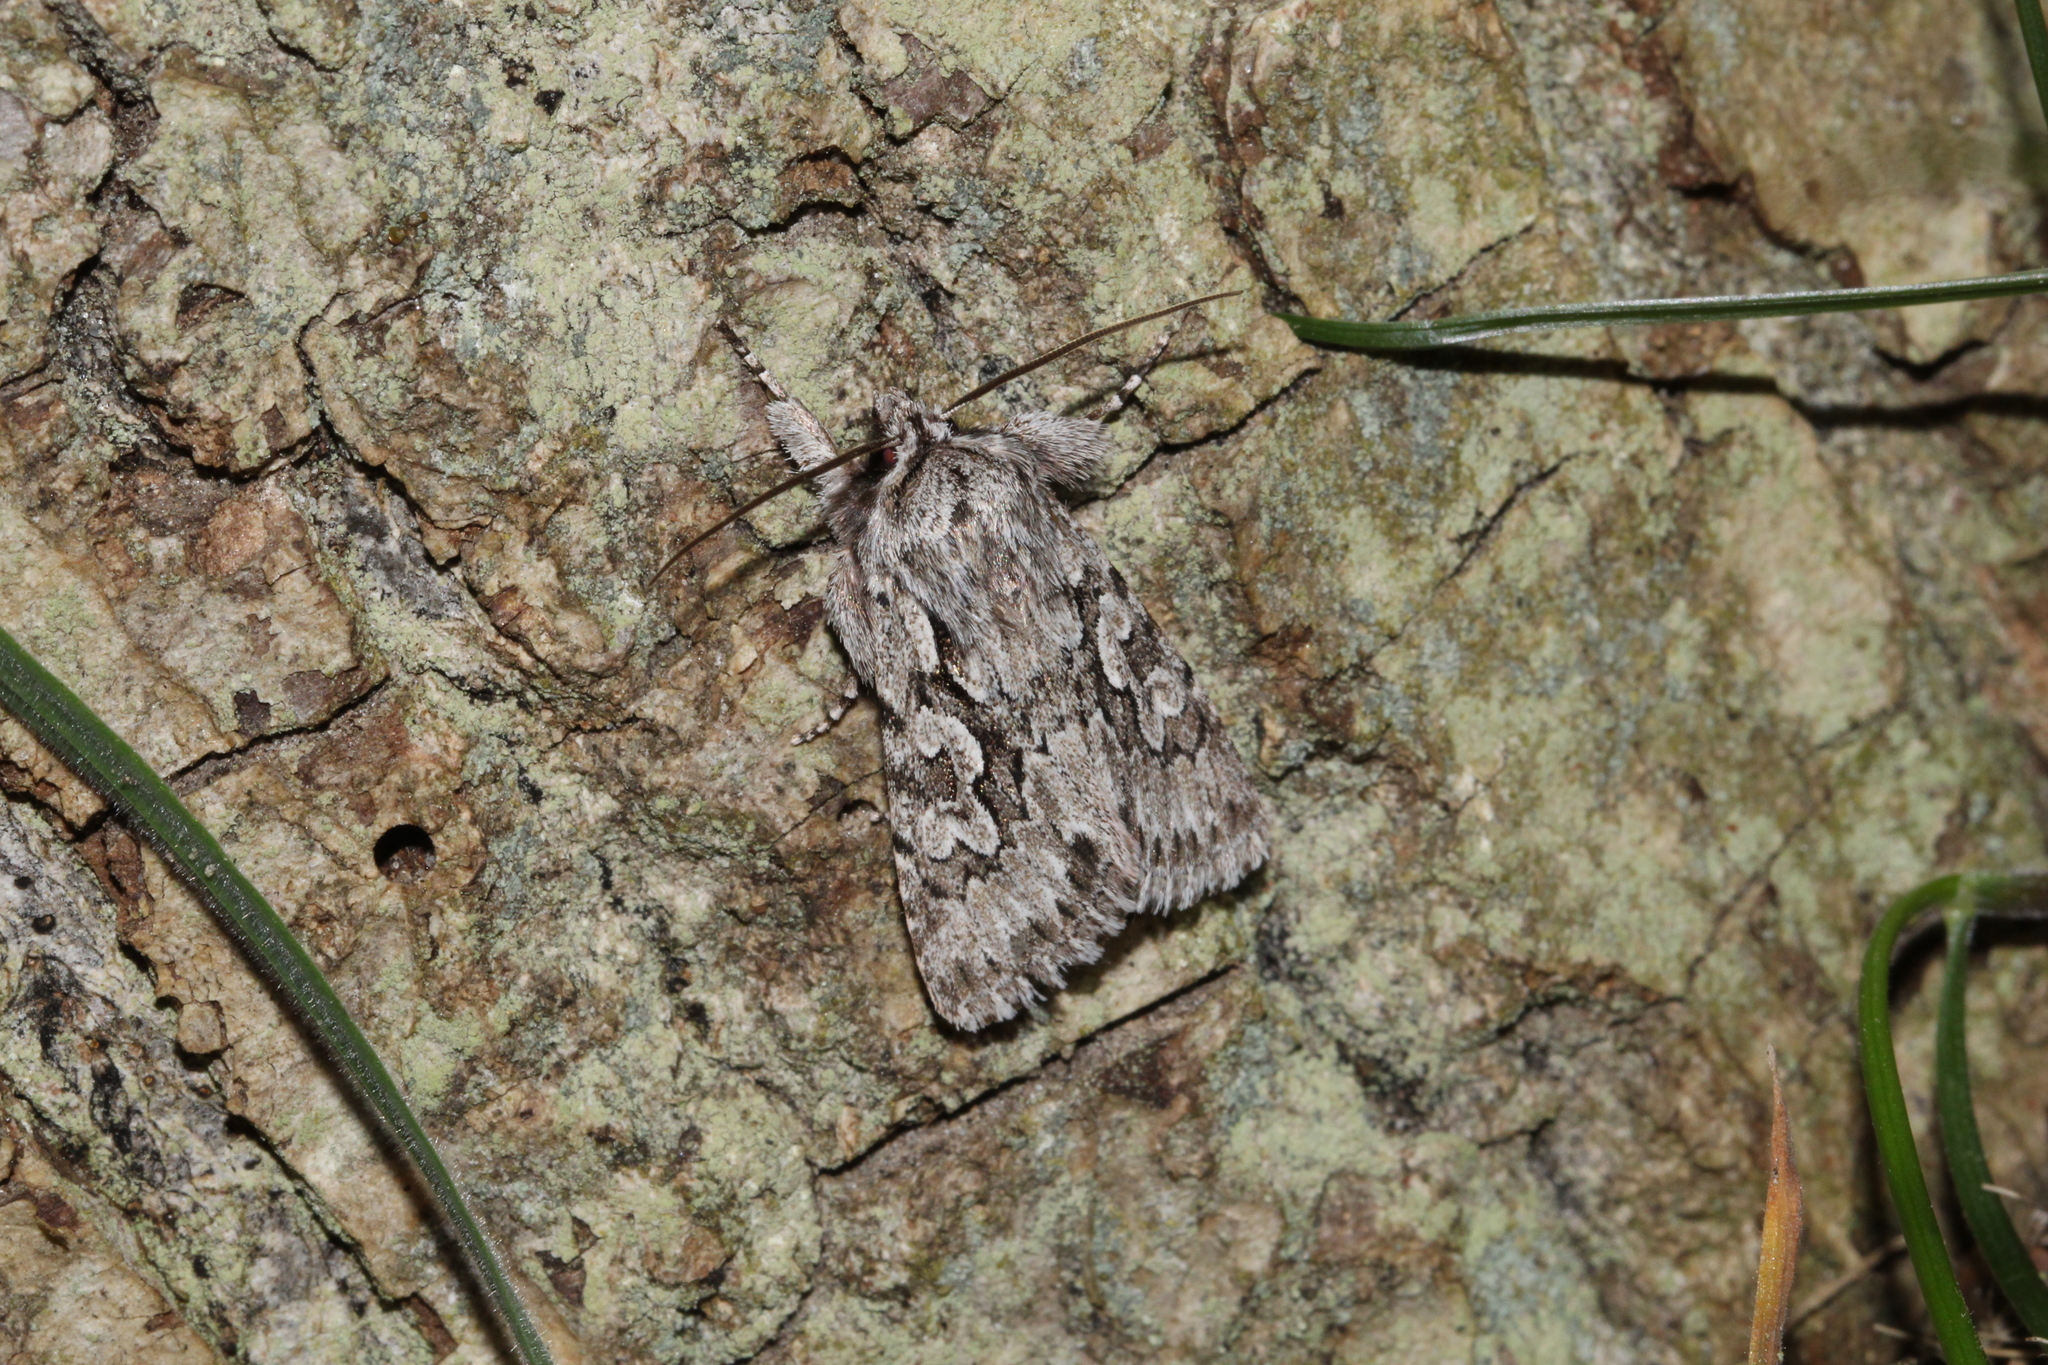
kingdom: Animalia
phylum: Arthropoda
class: Insecta
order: Lepidoptera
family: Noctuidae
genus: Xylocampa
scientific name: Xylocampa areola
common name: Early grey
